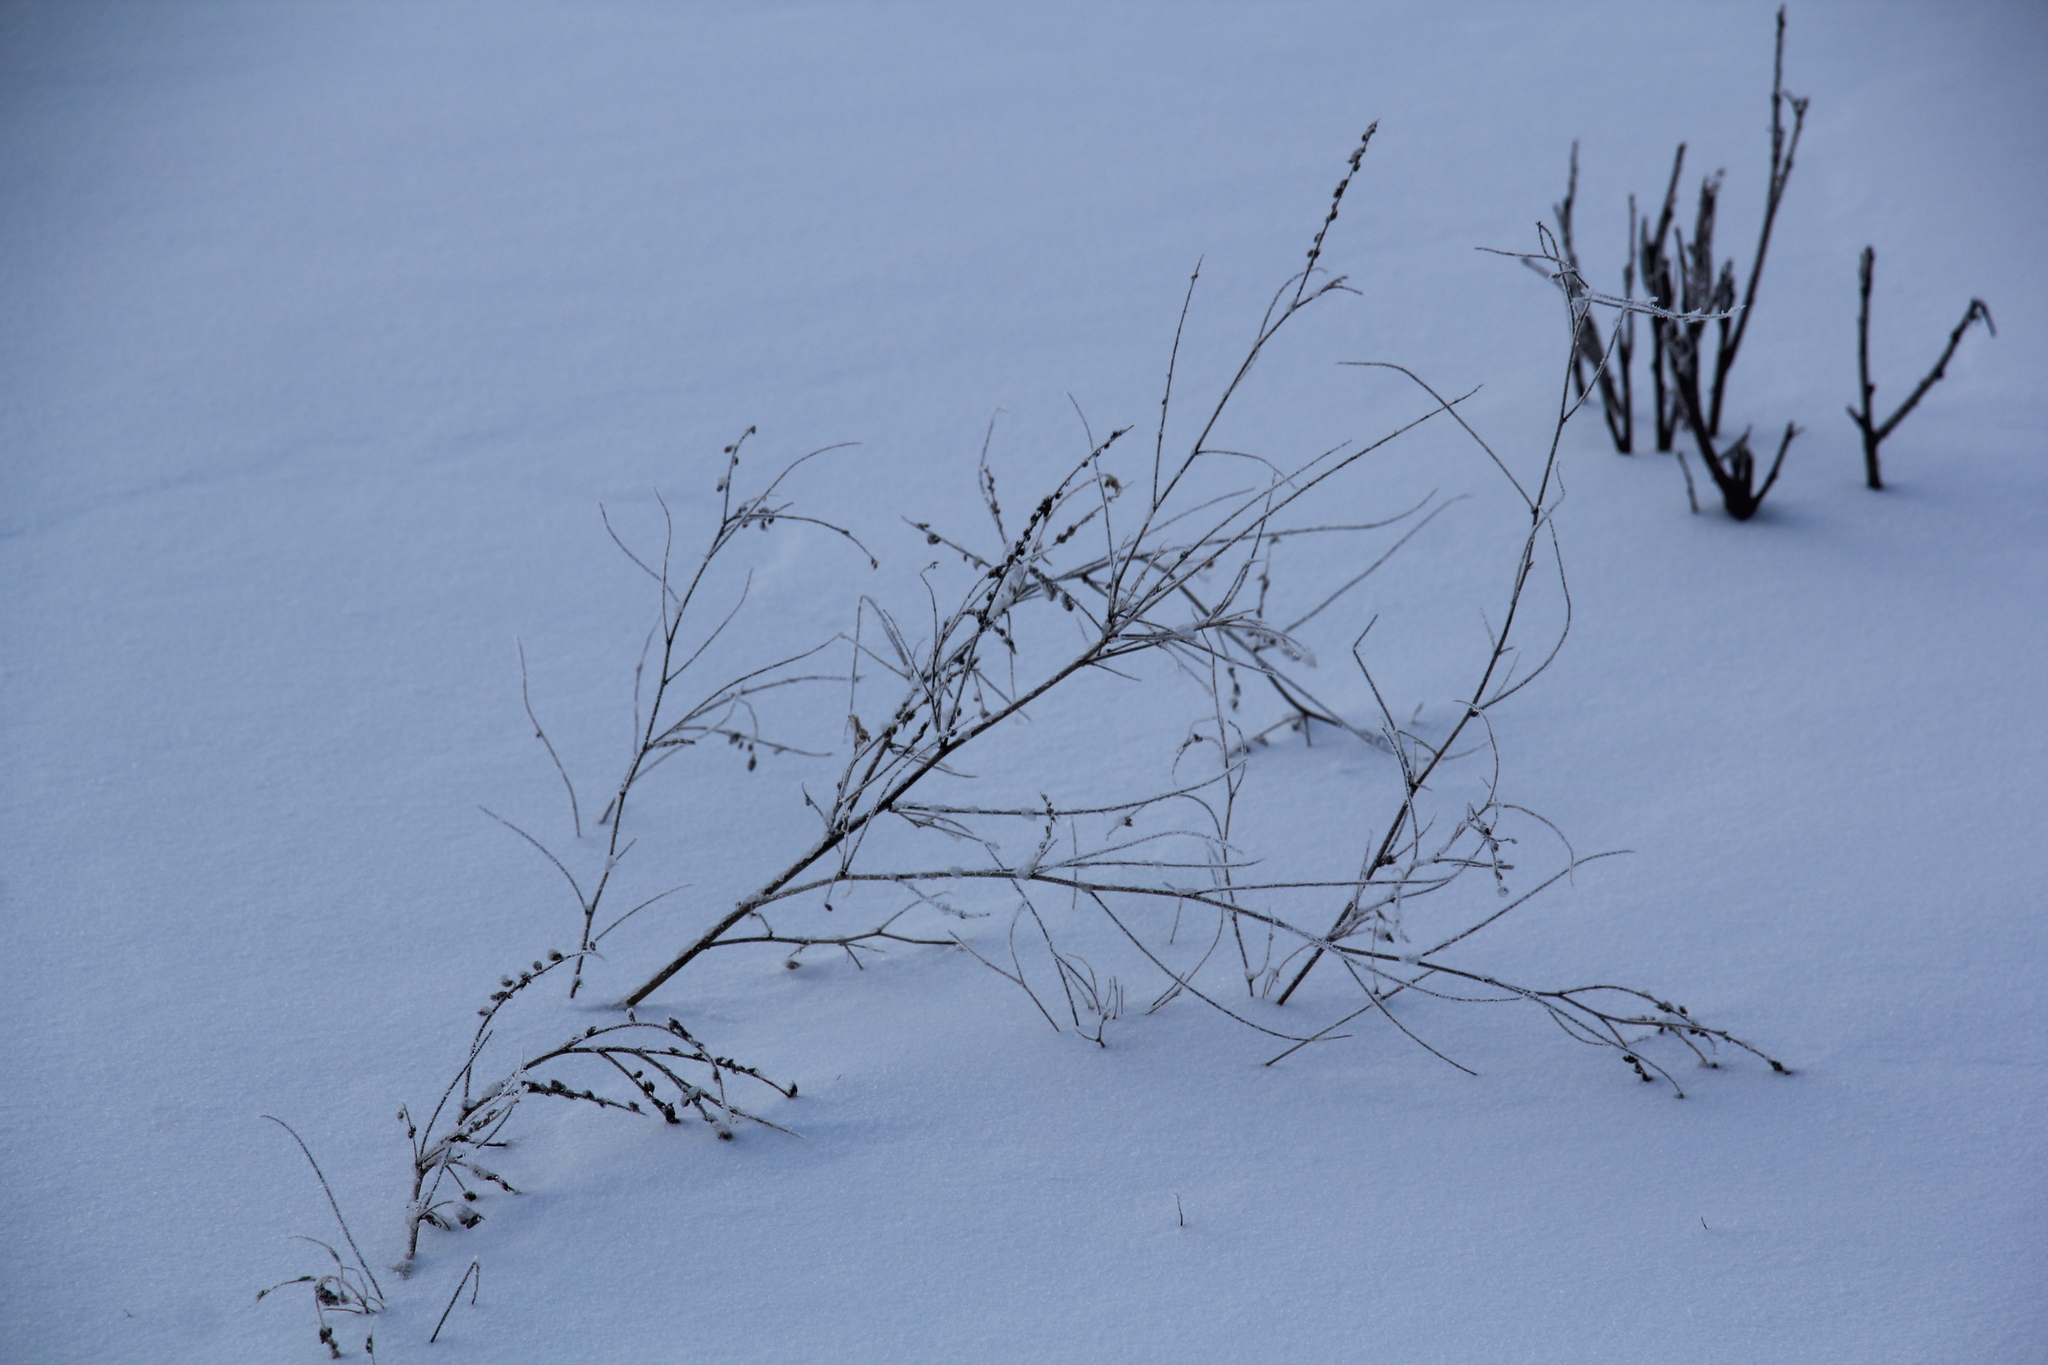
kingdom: Plantae
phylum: Tracheophyta
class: Magnoliopsida
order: Fabales
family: Fabaceae
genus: Melilotus
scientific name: Melilotus albus
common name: White melilot
